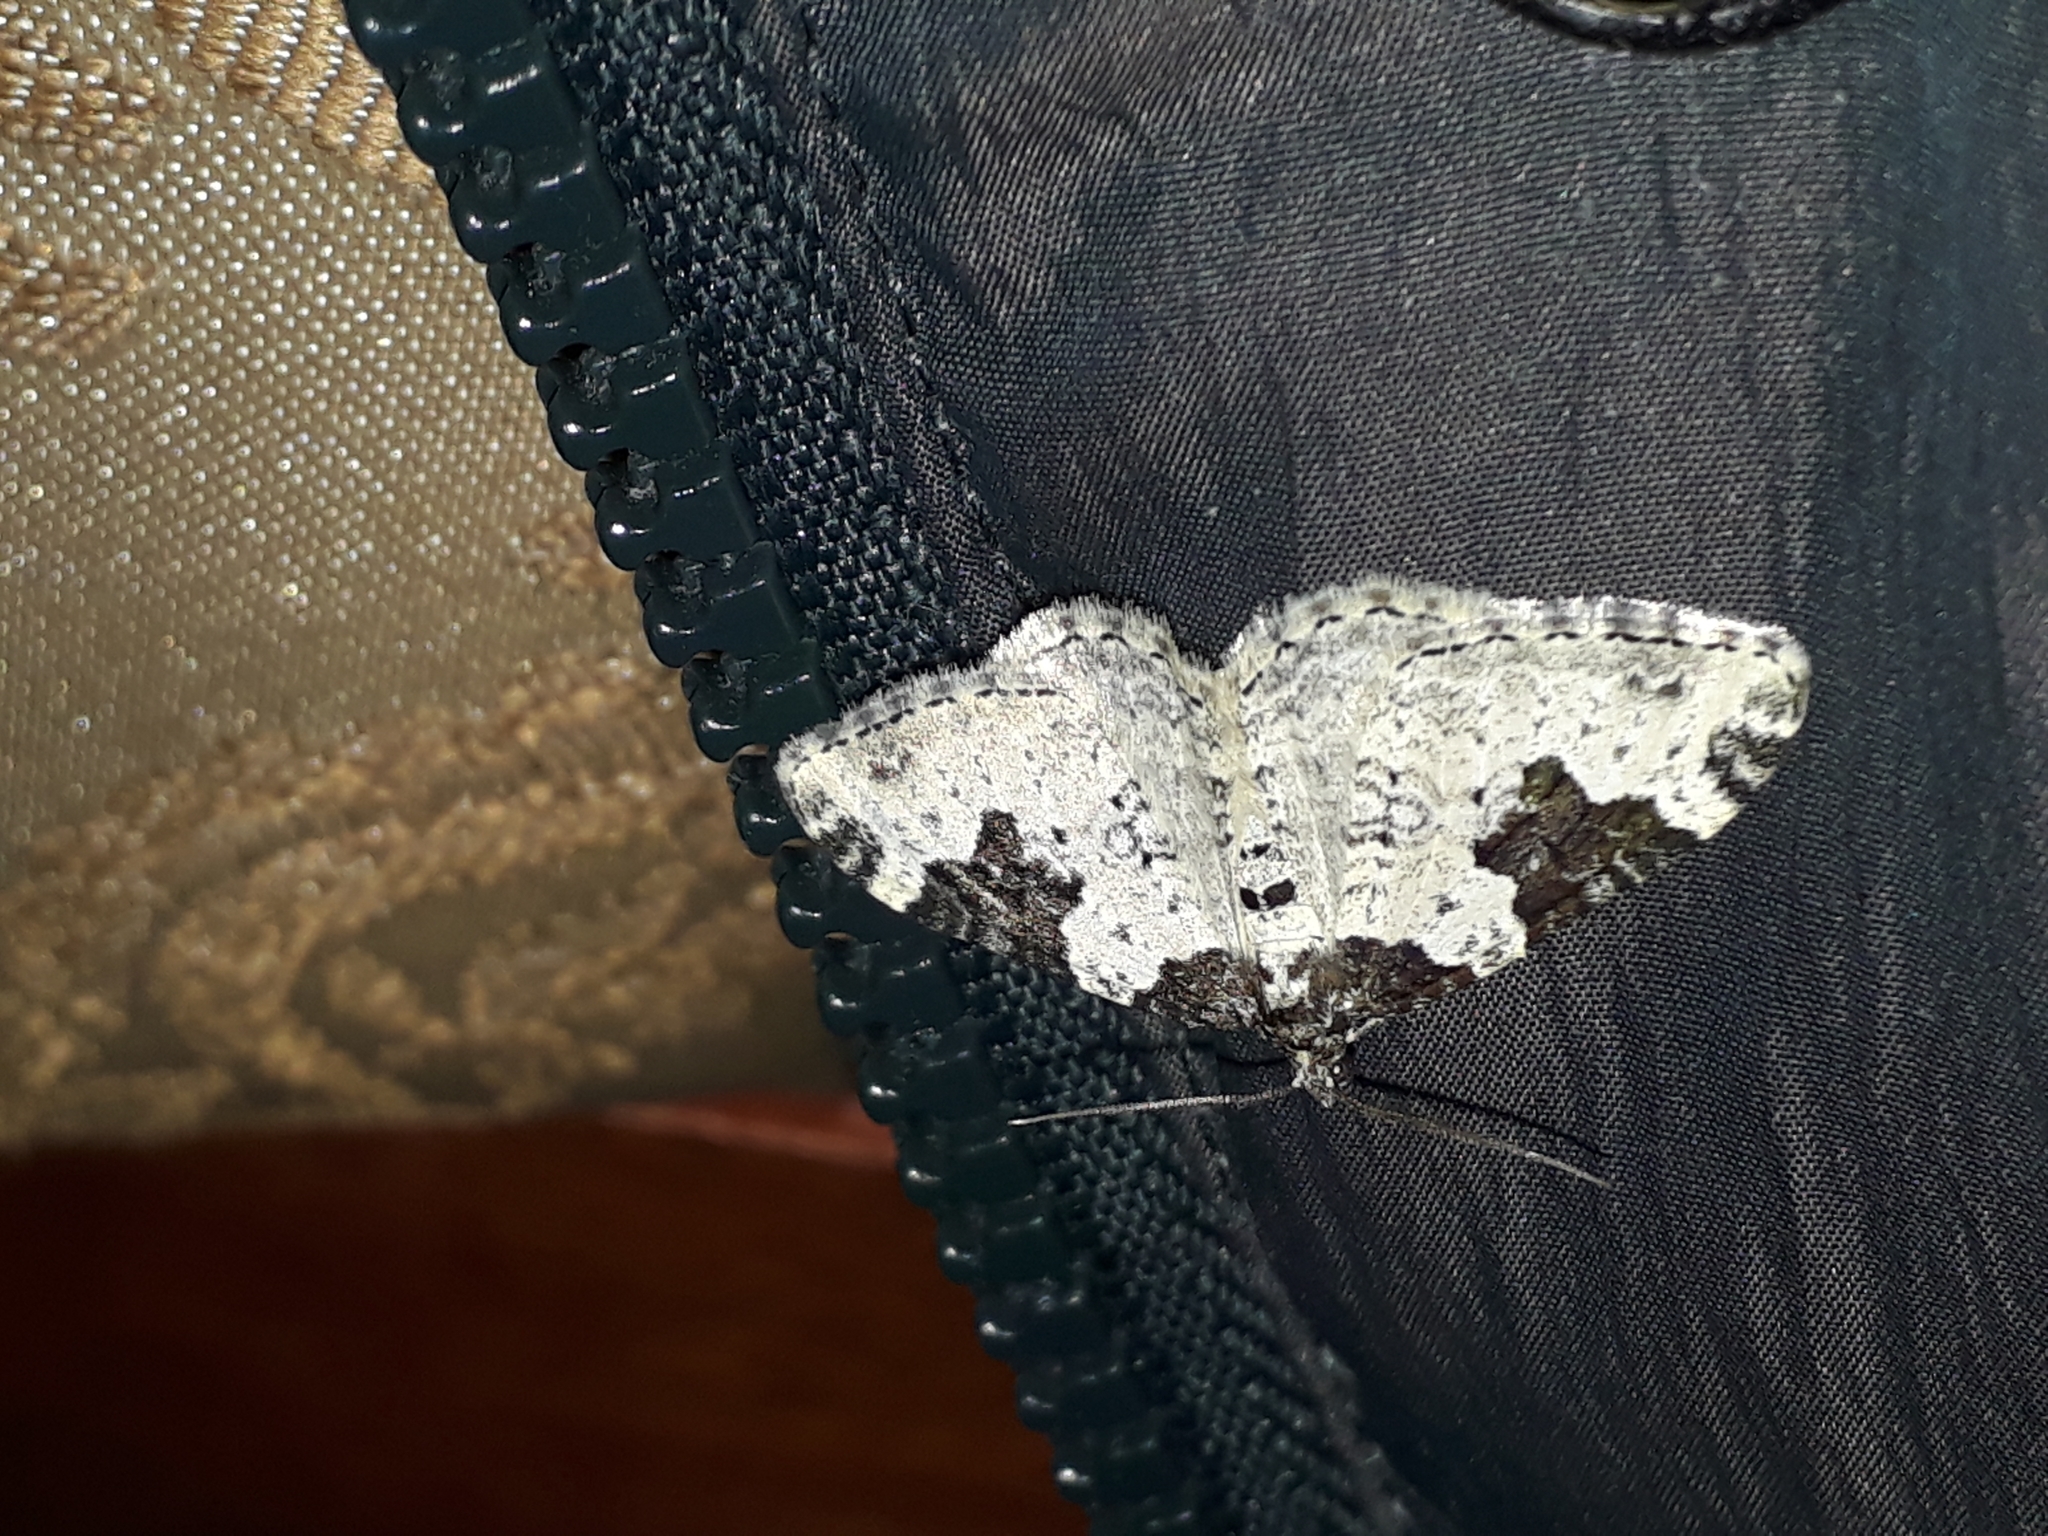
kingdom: Animalia
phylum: Arthropoda
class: Insecta
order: Lepidoptera
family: Geometridae
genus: Xanthorhoe
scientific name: Xanthorhoe fluctuata
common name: Garden carpet
